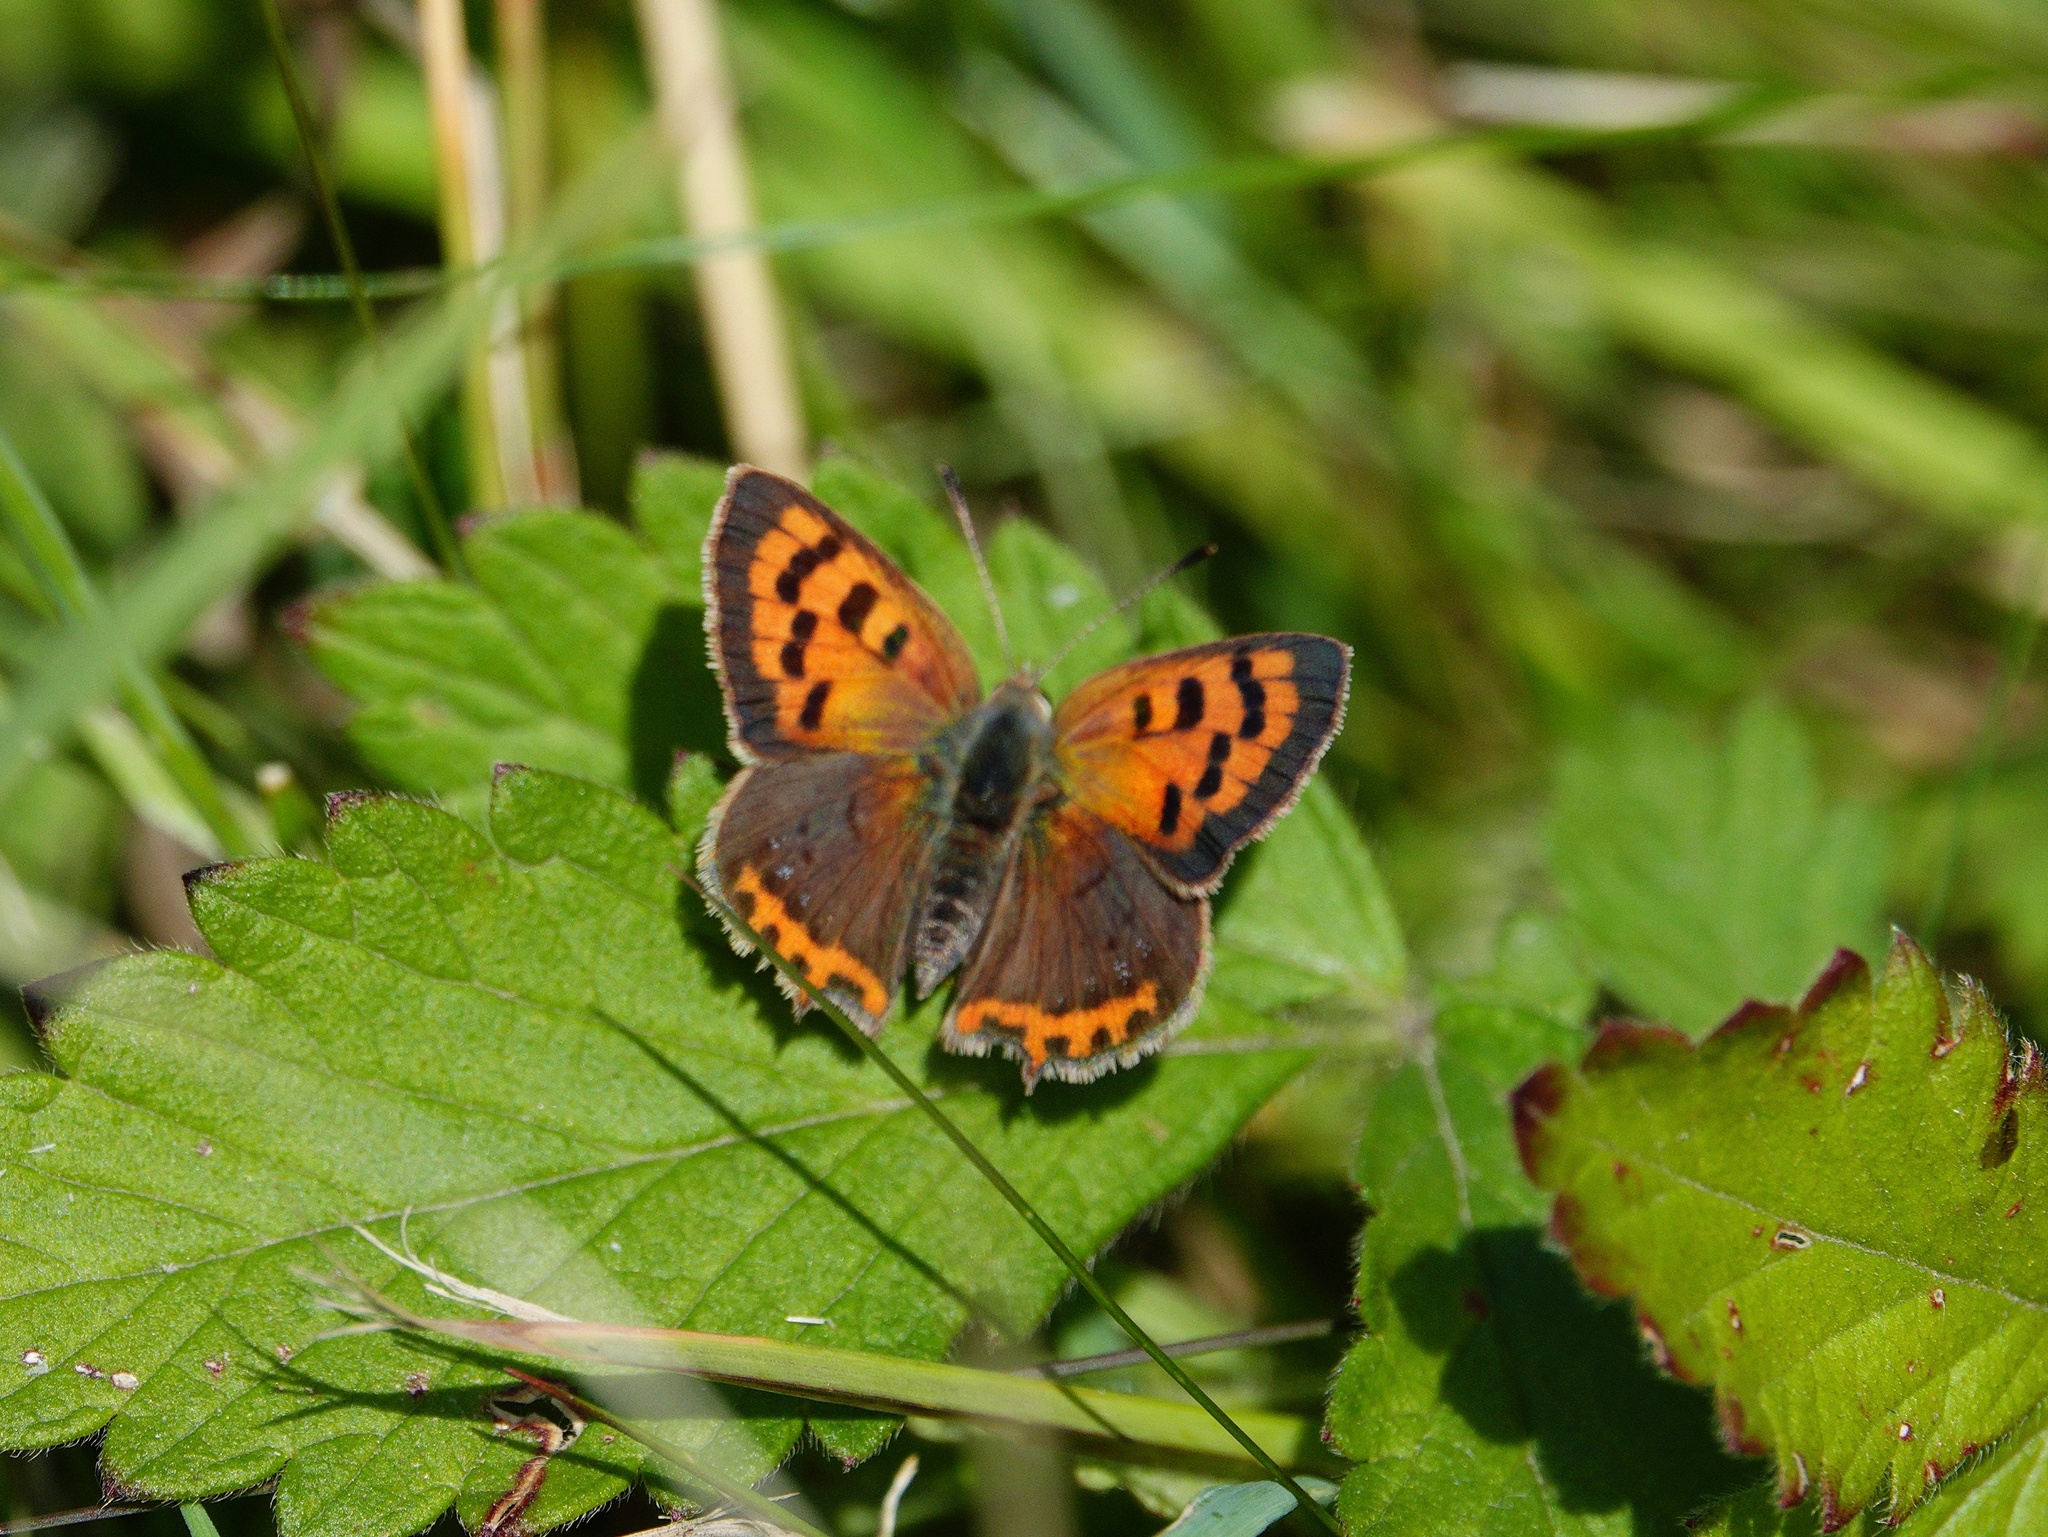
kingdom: Animalia
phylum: Arthropoda
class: Insecta
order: Lepidoptera
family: Lycaenidae
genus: Lycaena
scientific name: Lycaena phlaeas
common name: Small copper
